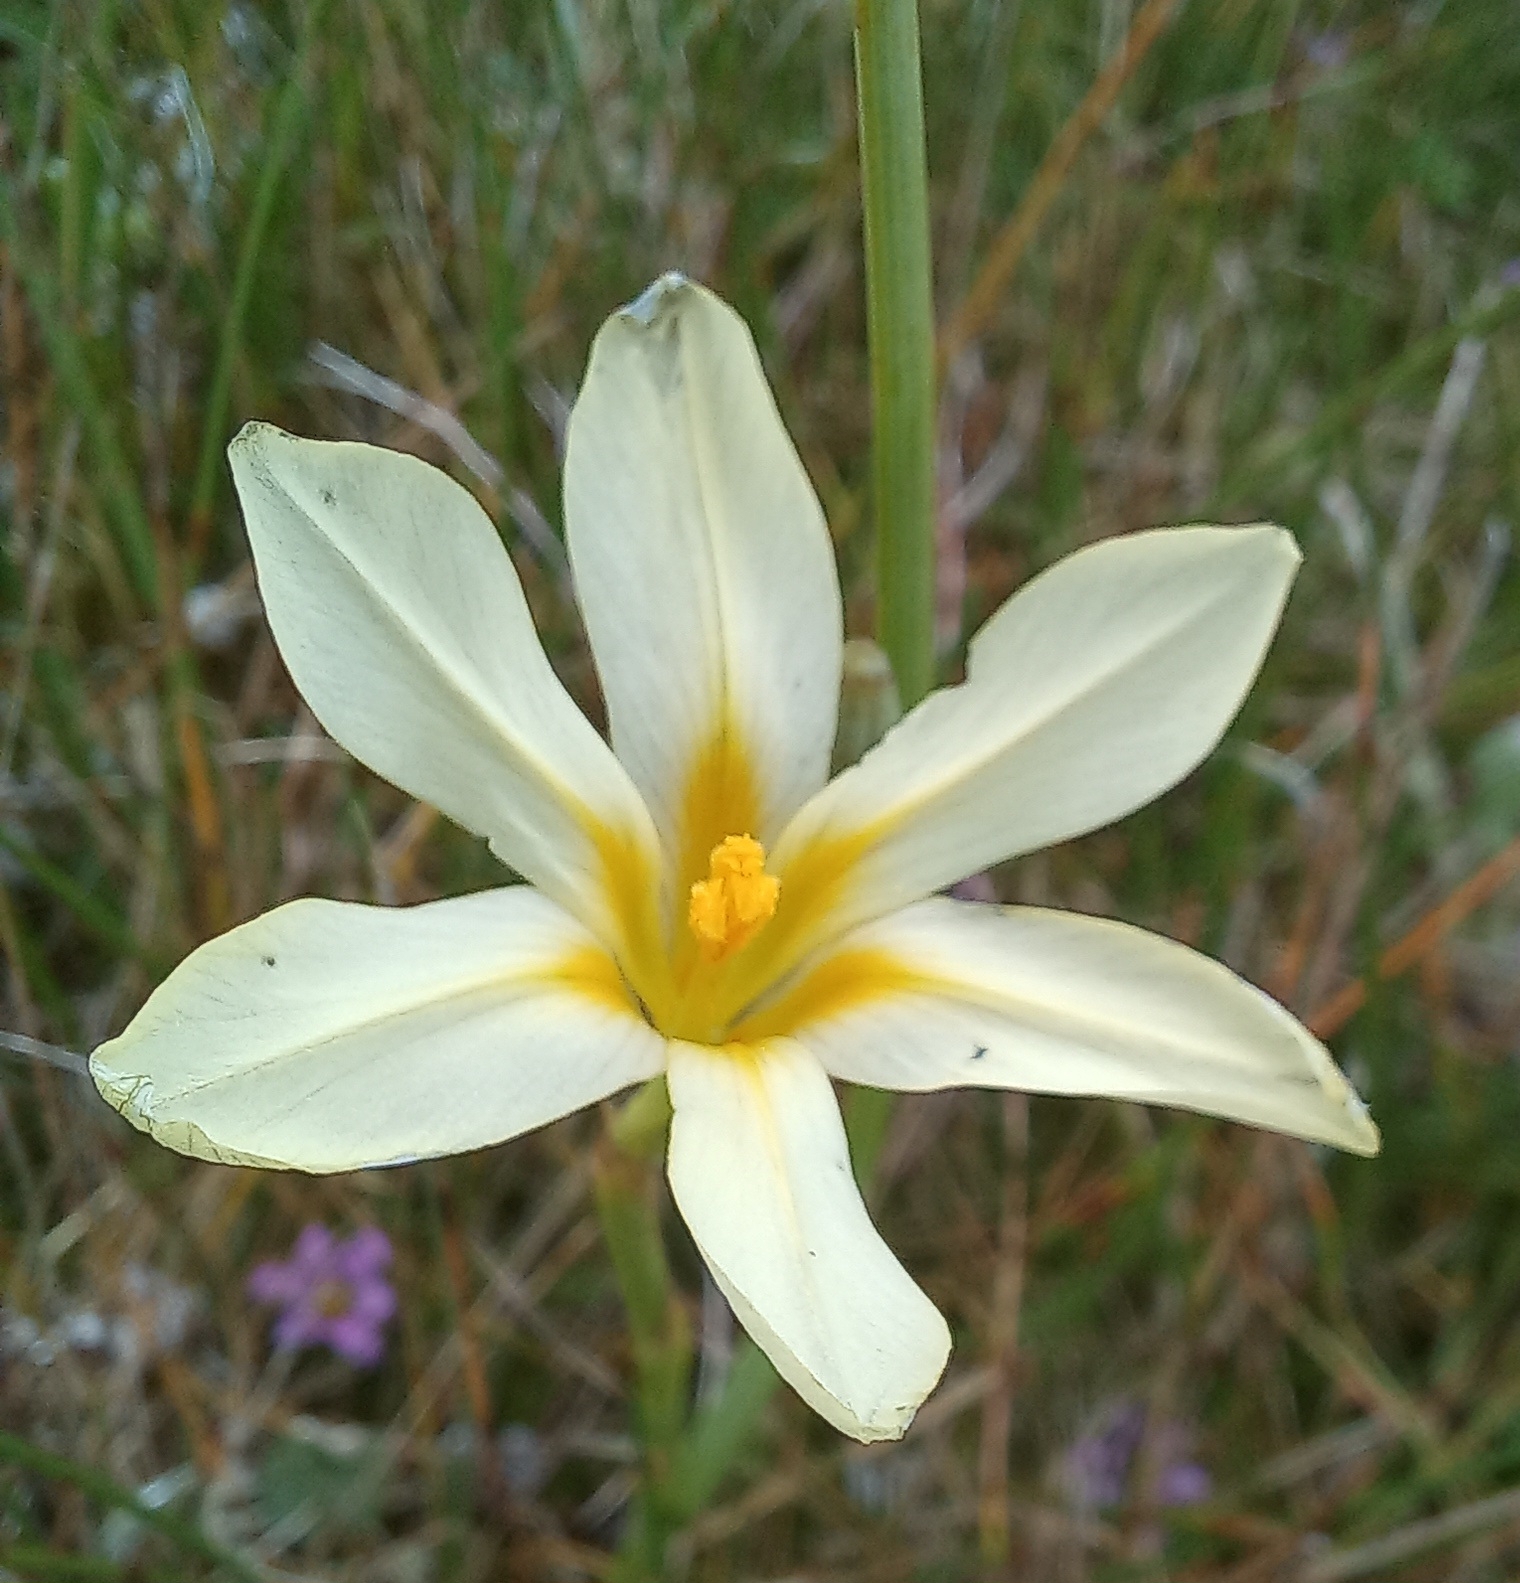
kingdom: Plantae
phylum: Tracheophyta
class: Liliopsida
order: Asparagales
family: Iridaceae
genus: Moraea
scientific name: Moraea collina
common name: Cape-tulip
